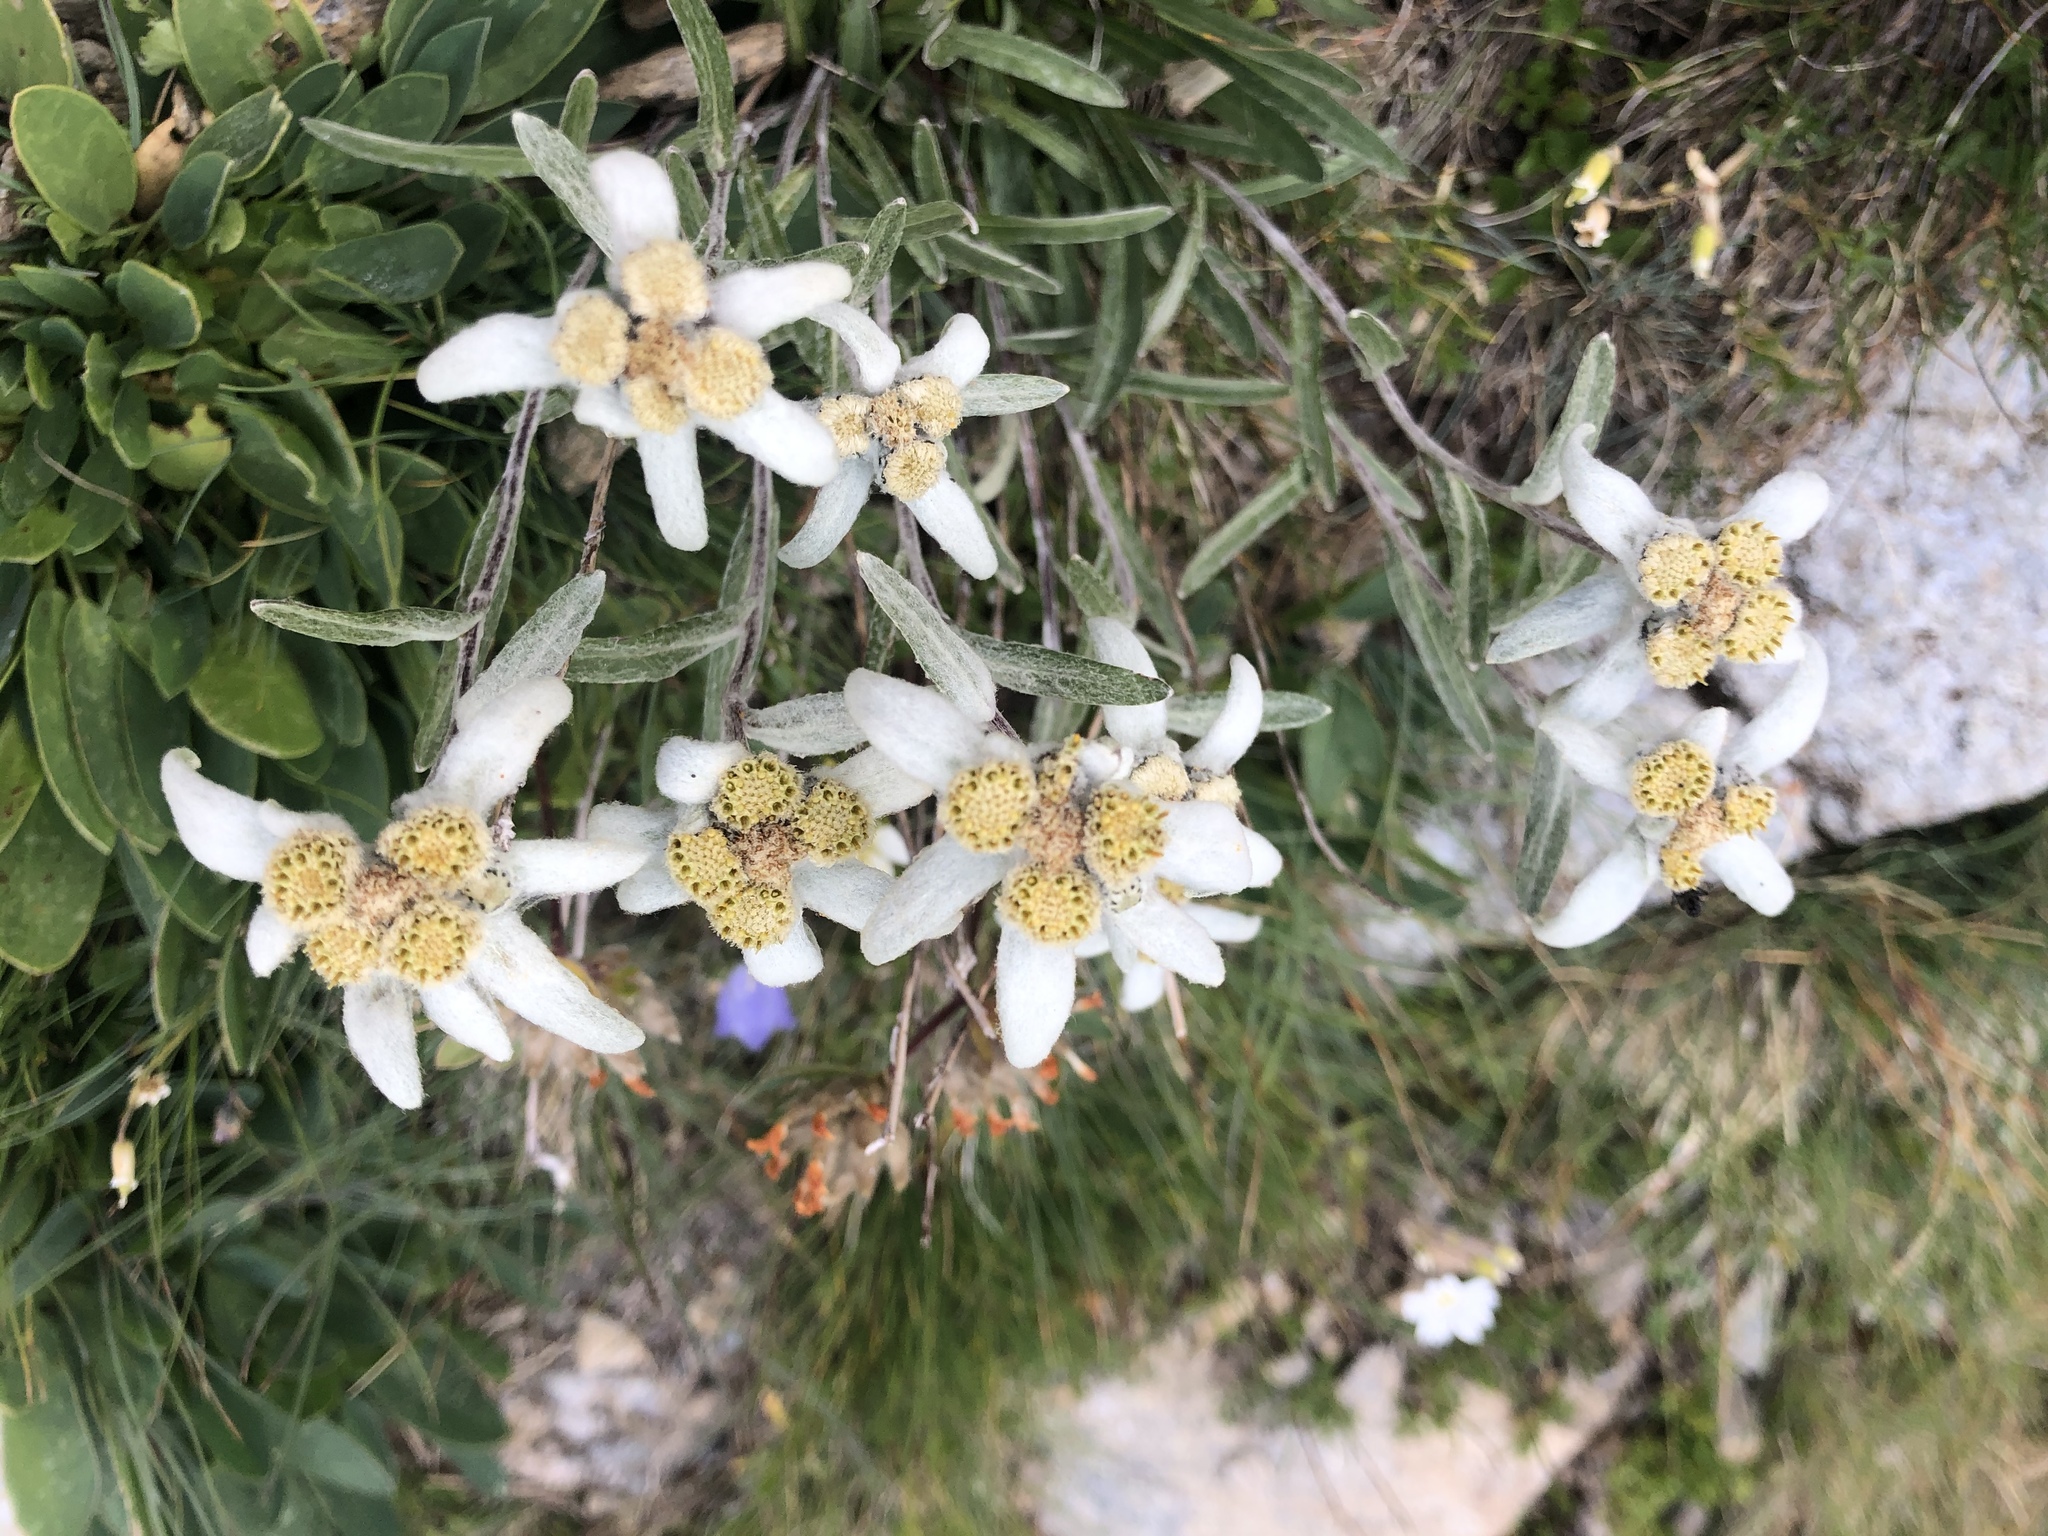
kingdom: Plantae
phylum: Tracheophyta
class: Magnoliopsida
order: Asterales
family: Asteraceae
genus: Leontopodium
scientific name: Leontopodium nivale
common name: Edelweiss
